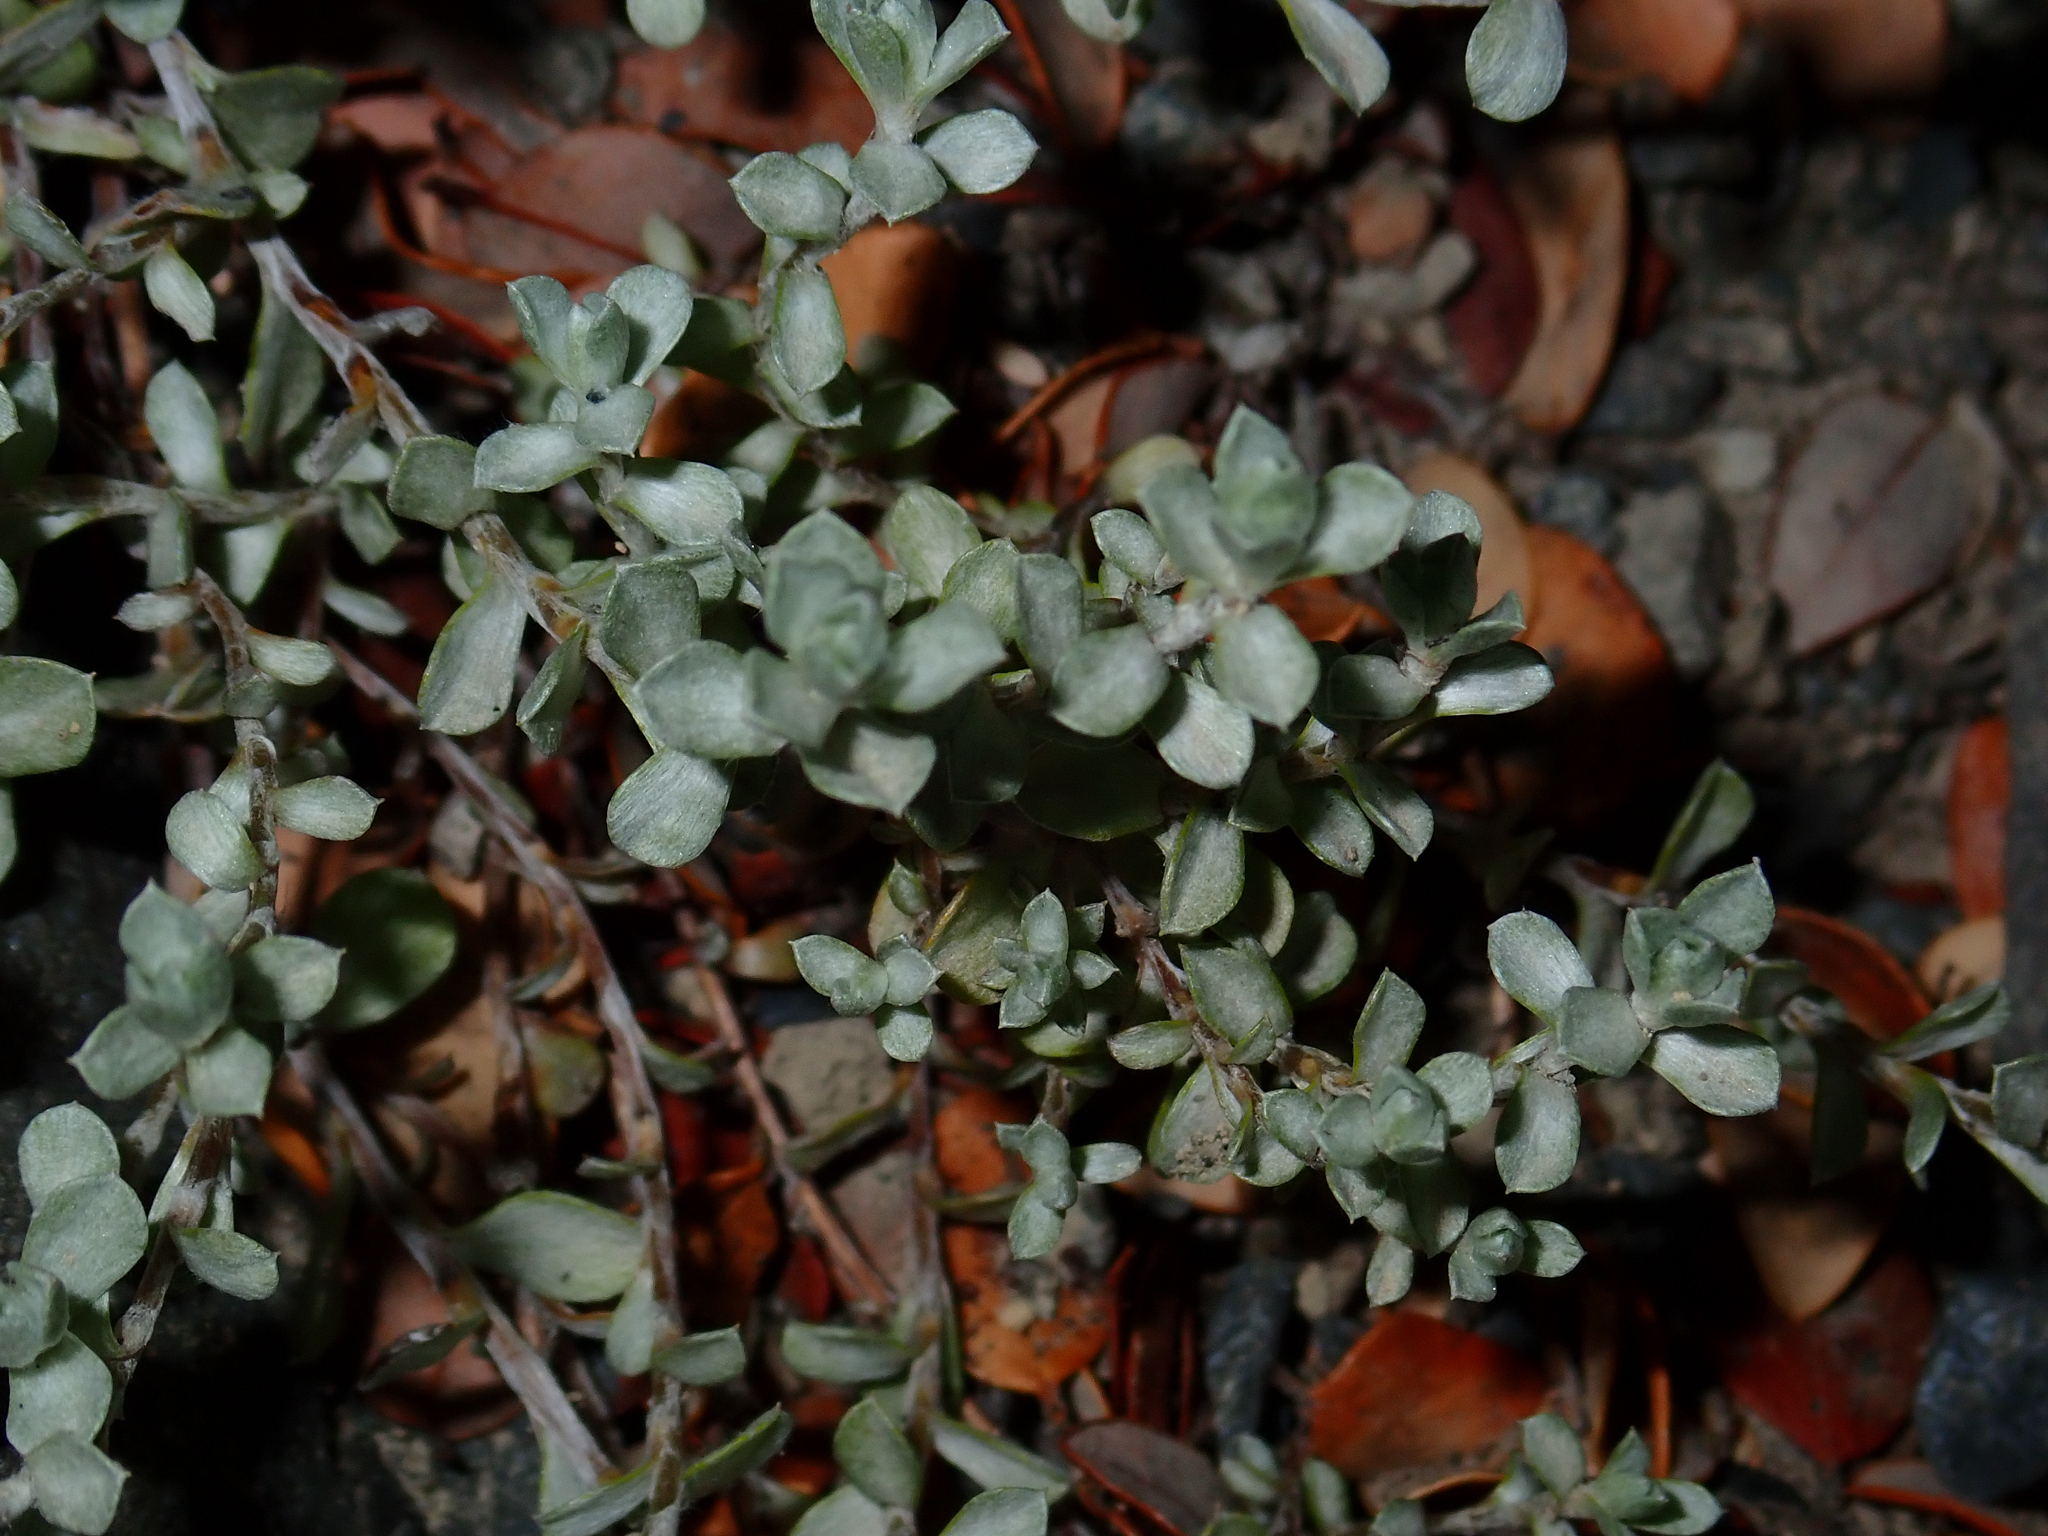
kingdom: Plantae
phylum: Tracheophyta
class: Magnoliopsida
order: Asterales
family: Asteraceae
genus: Anaphalioides
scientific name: Anaphalioides bellidioides
